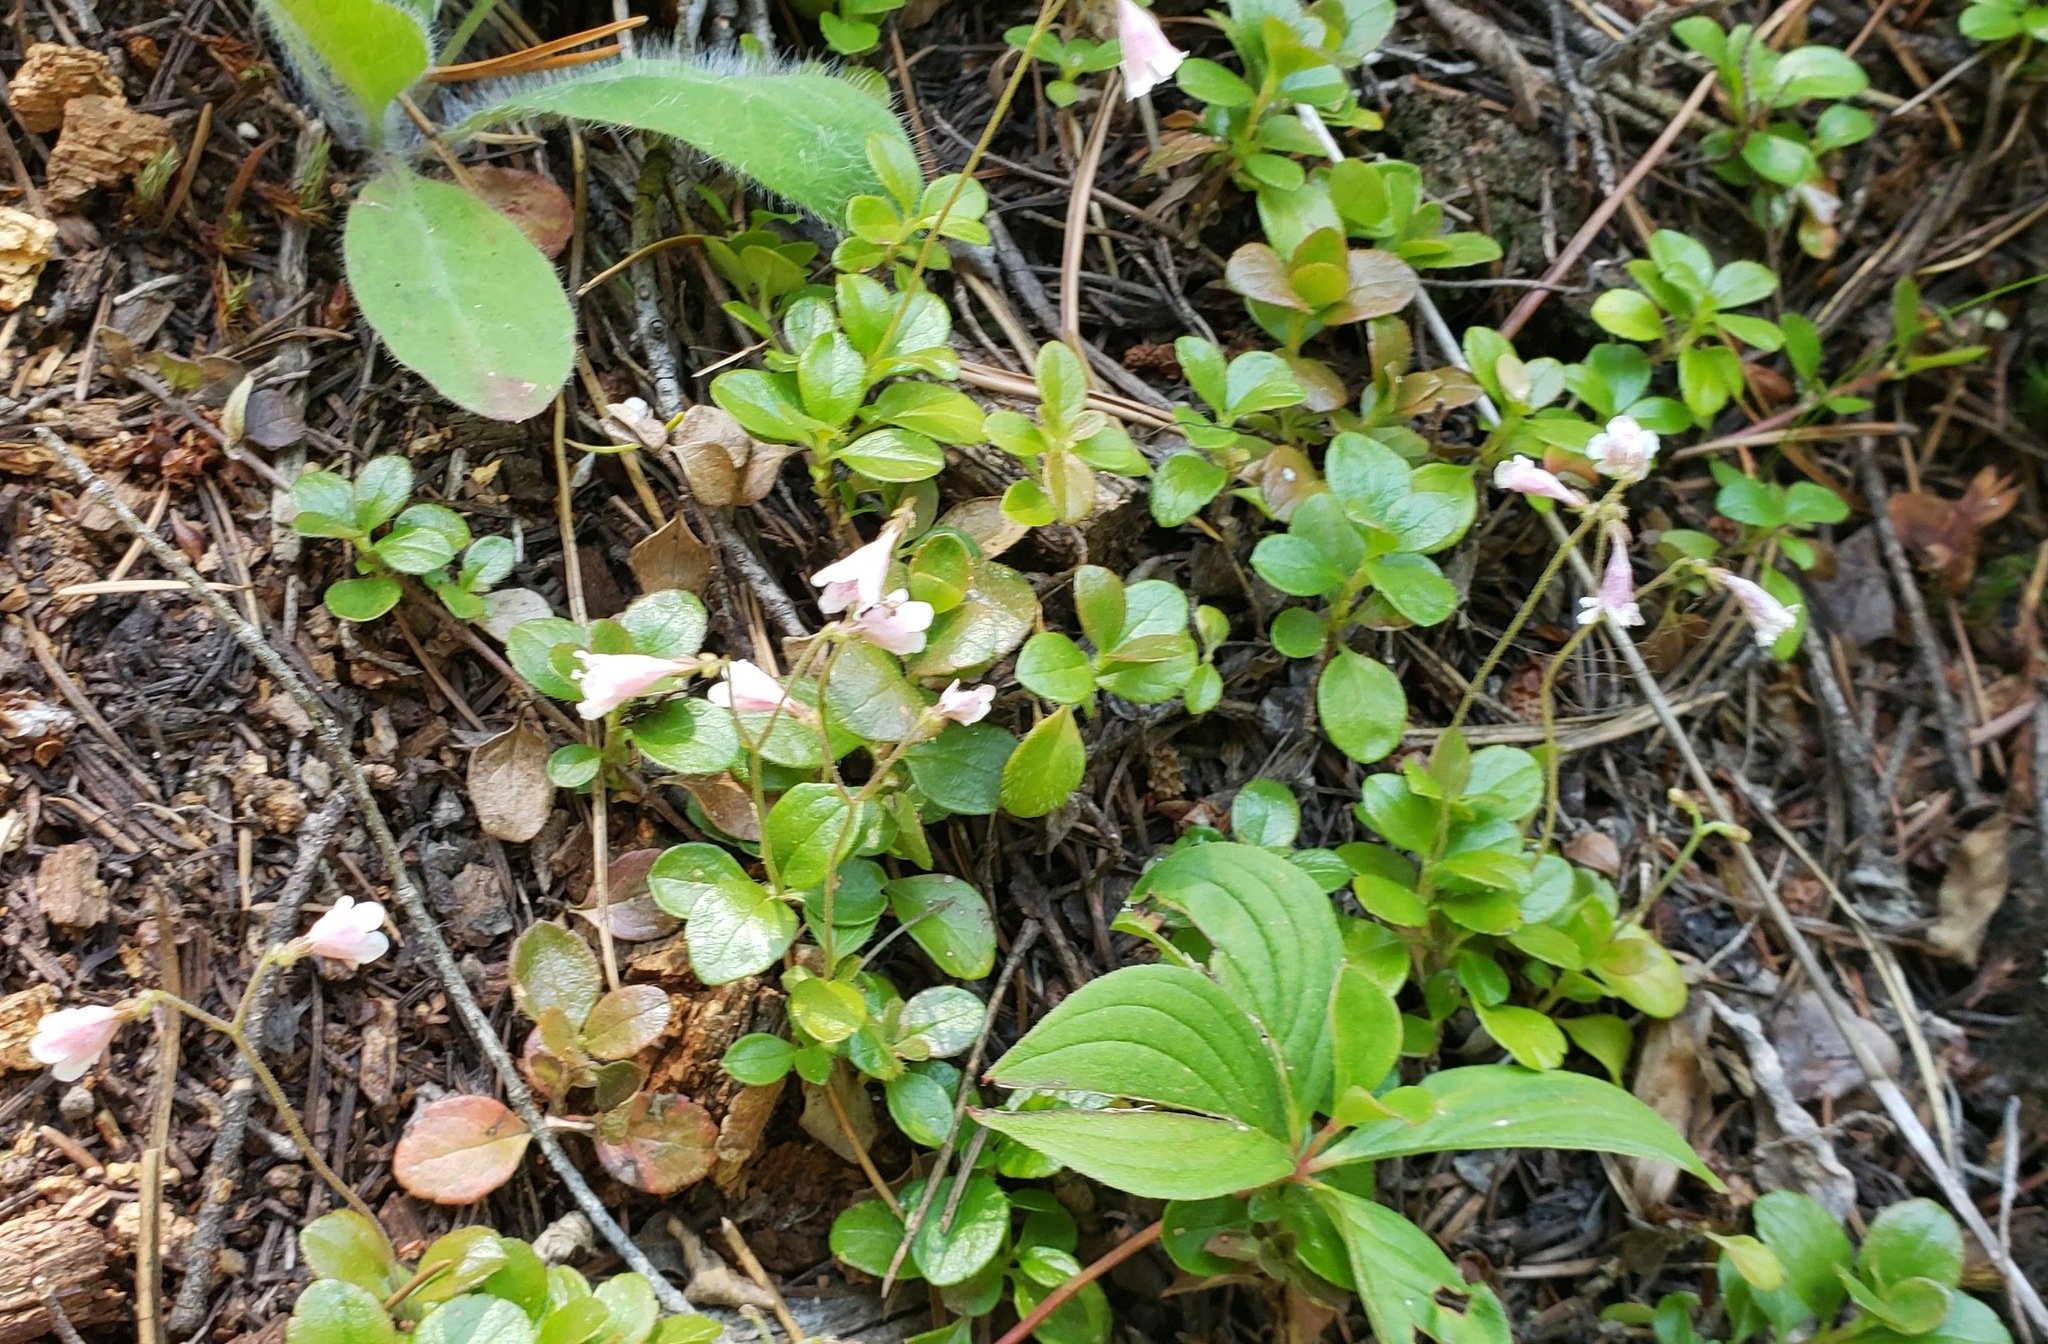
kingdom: Plantae
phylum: Tracheophyta
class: Magnoliopsida
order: Dipsacales
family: Caprifoliaceae
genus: Linnaea
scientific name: Linnaea borealis
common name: Twinflower
